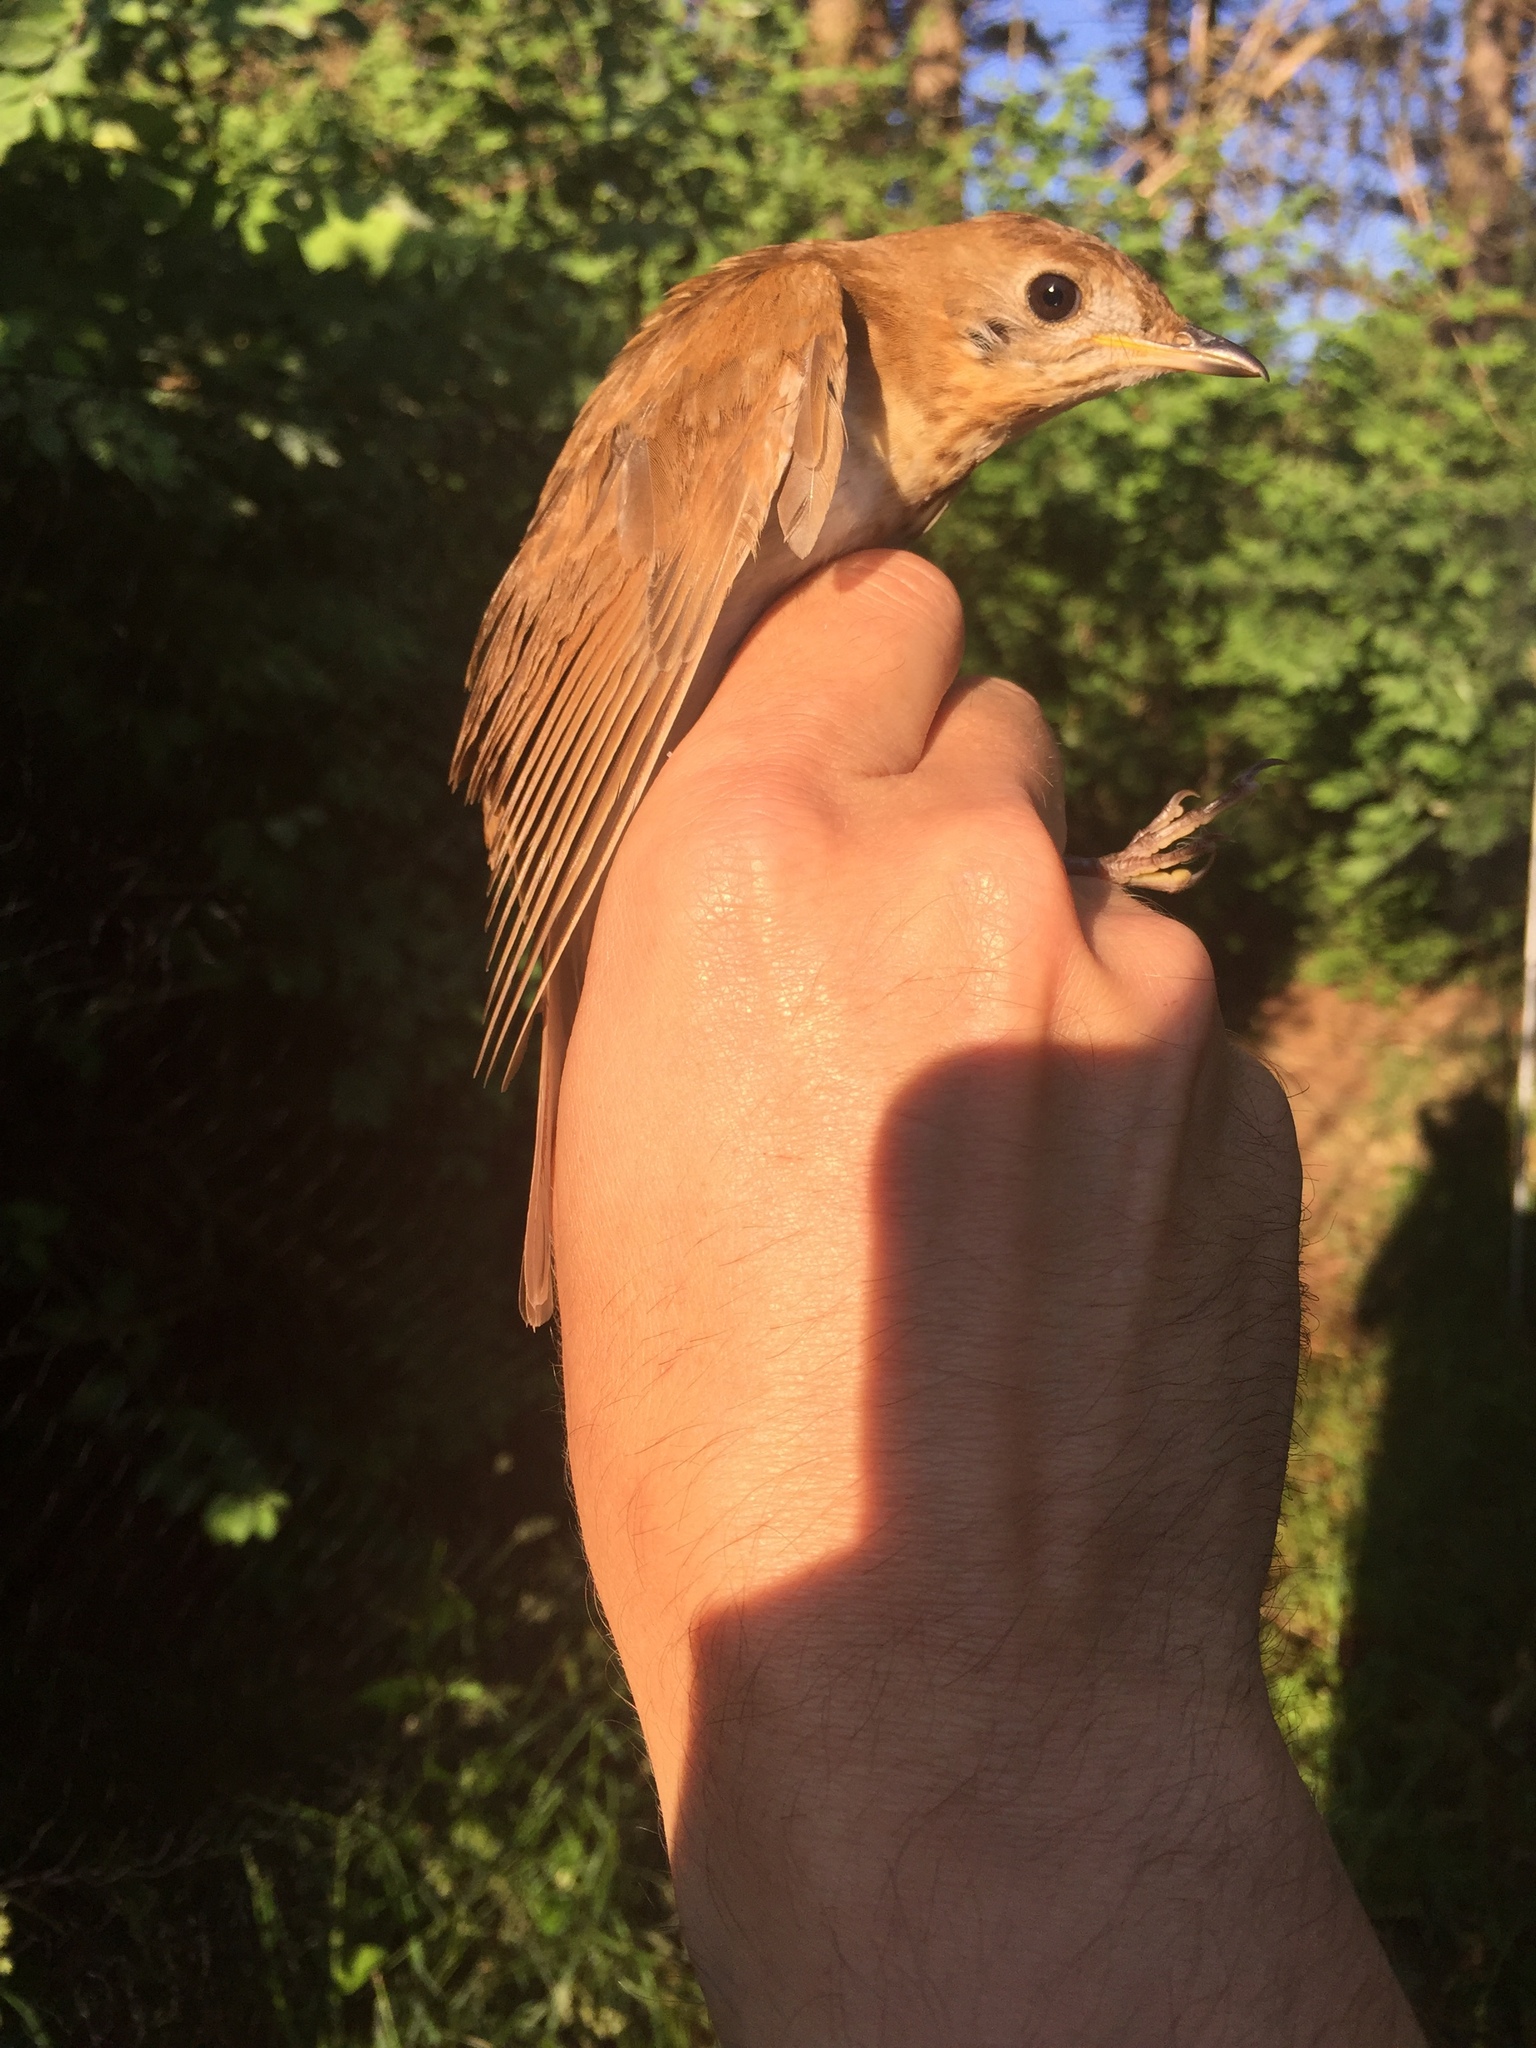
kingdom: Animalia
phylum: Chordata
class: Aves
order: Passeriformes
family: Turdidae
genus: Catharus
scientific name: Catharus fuscescens
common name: Veery
